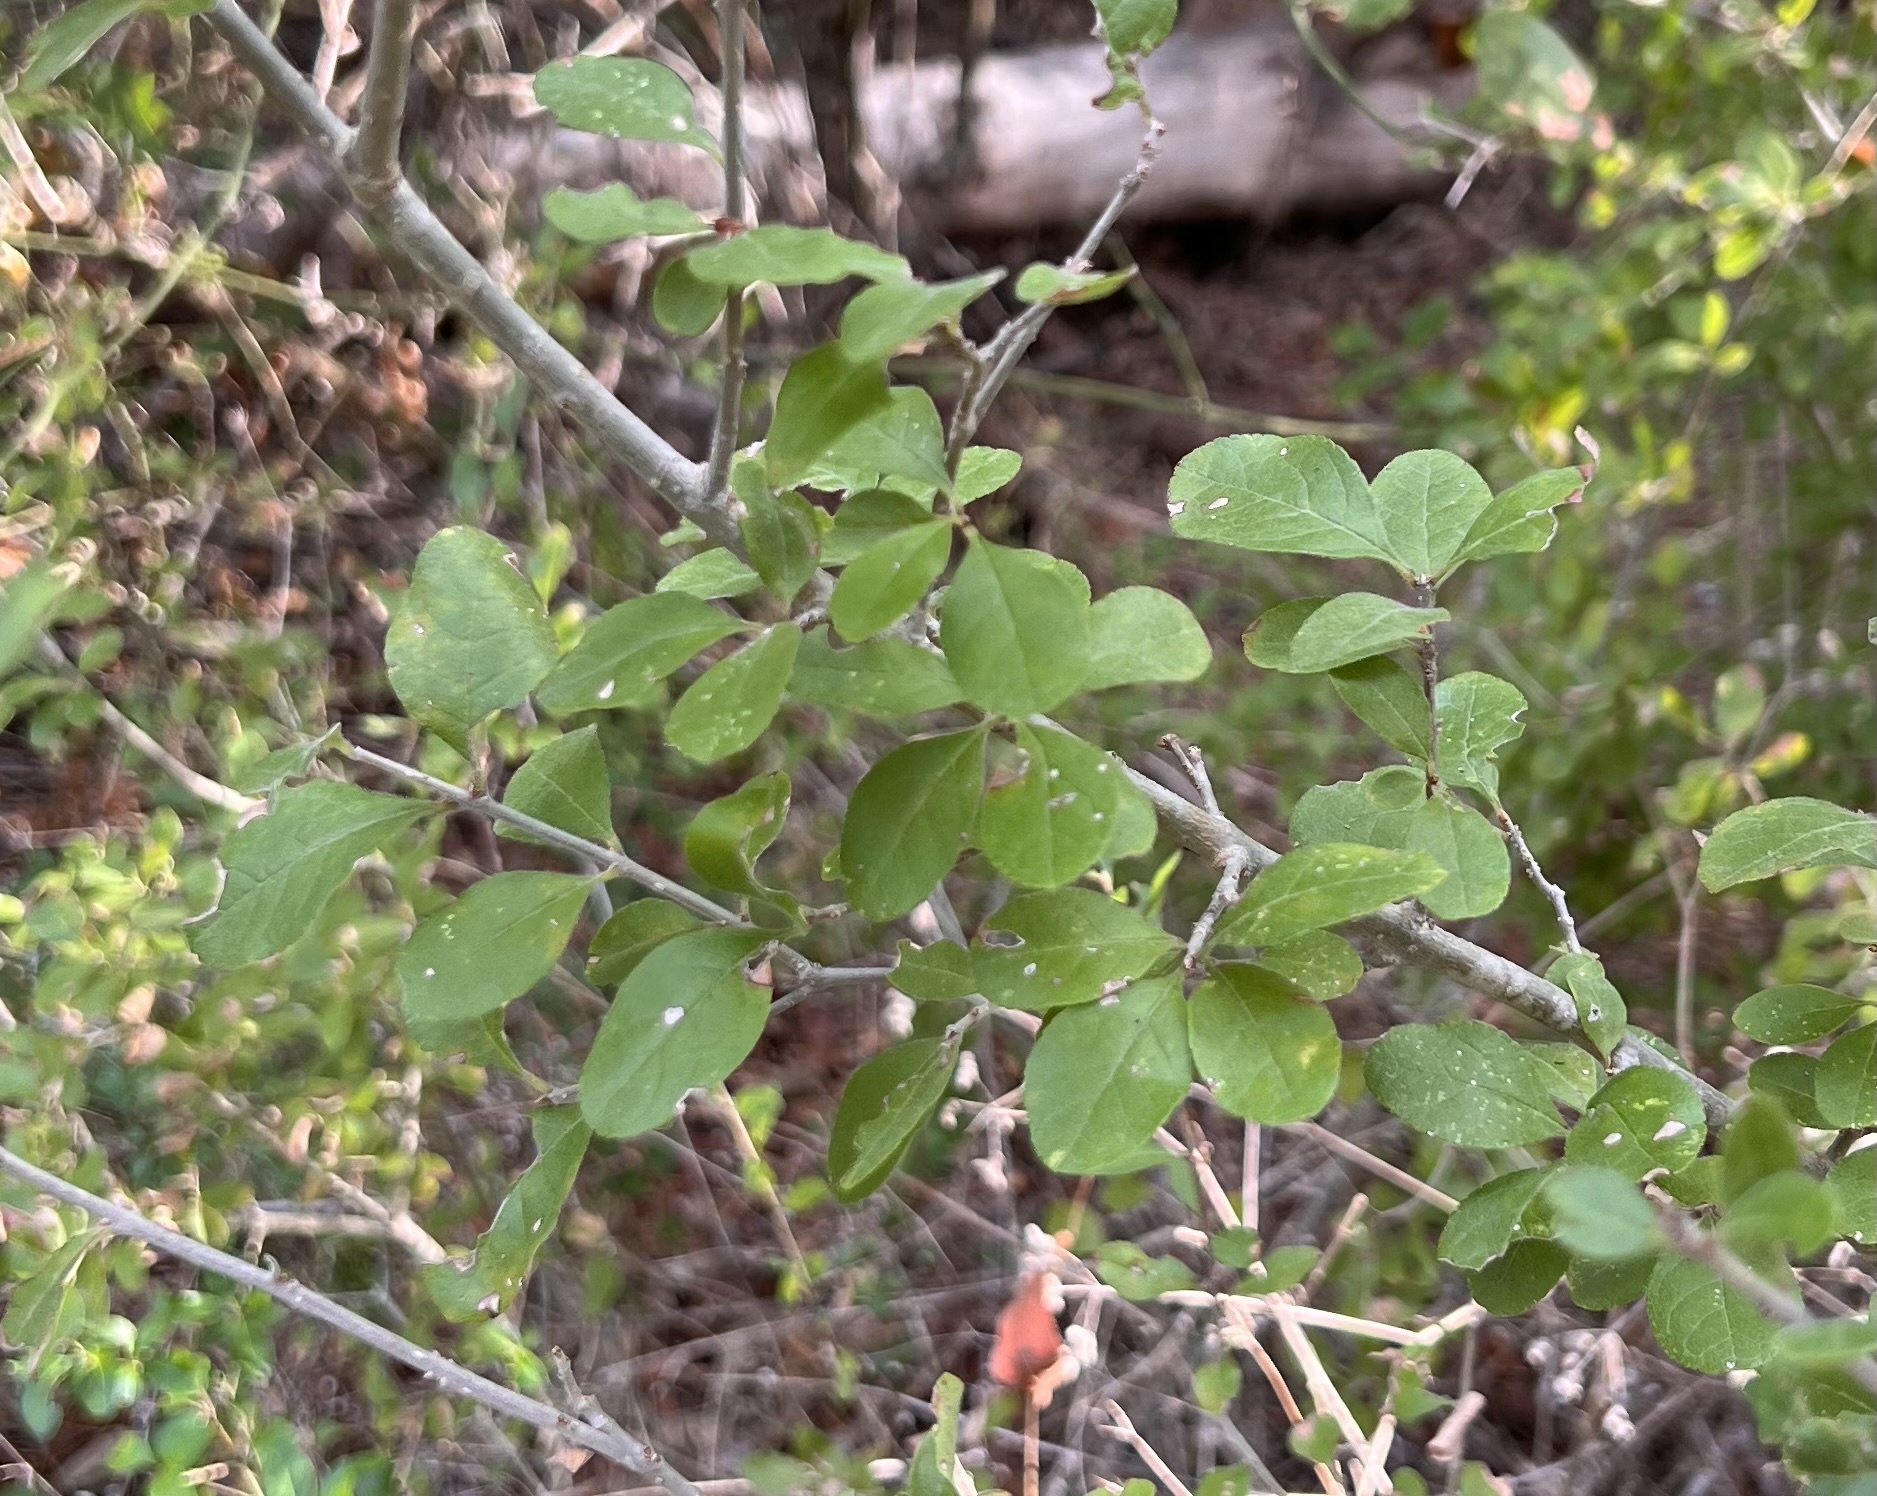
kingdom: Plantae
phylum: Tracheophyta
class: Magnoliopsida
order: Lamiales
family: Oleaceae
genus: Forestiera
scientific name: Forestiera pubescens
